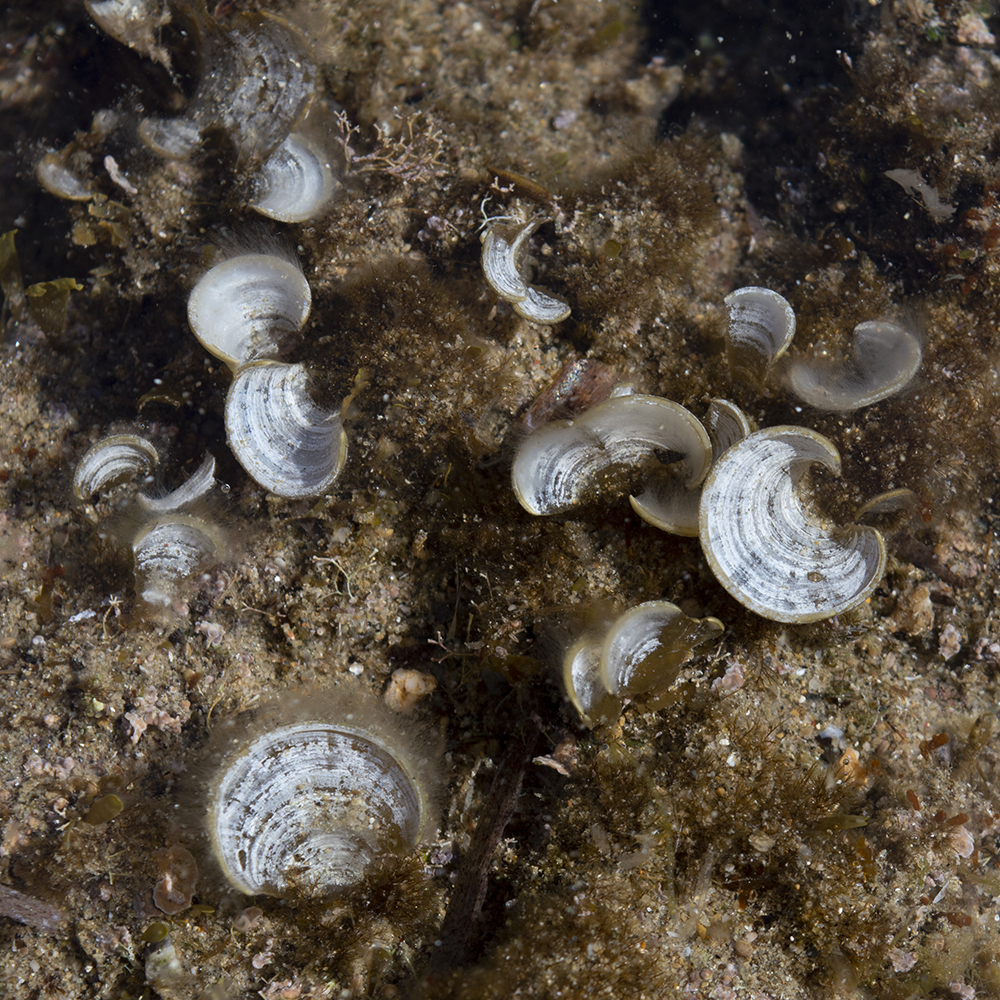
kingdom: Chromista
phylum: Ochrophyta
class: Phaeophyceae
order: Dictyotales
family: Dictyotaceae
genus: Padina
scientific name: Padina pavonica
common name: Turkey feather alga
